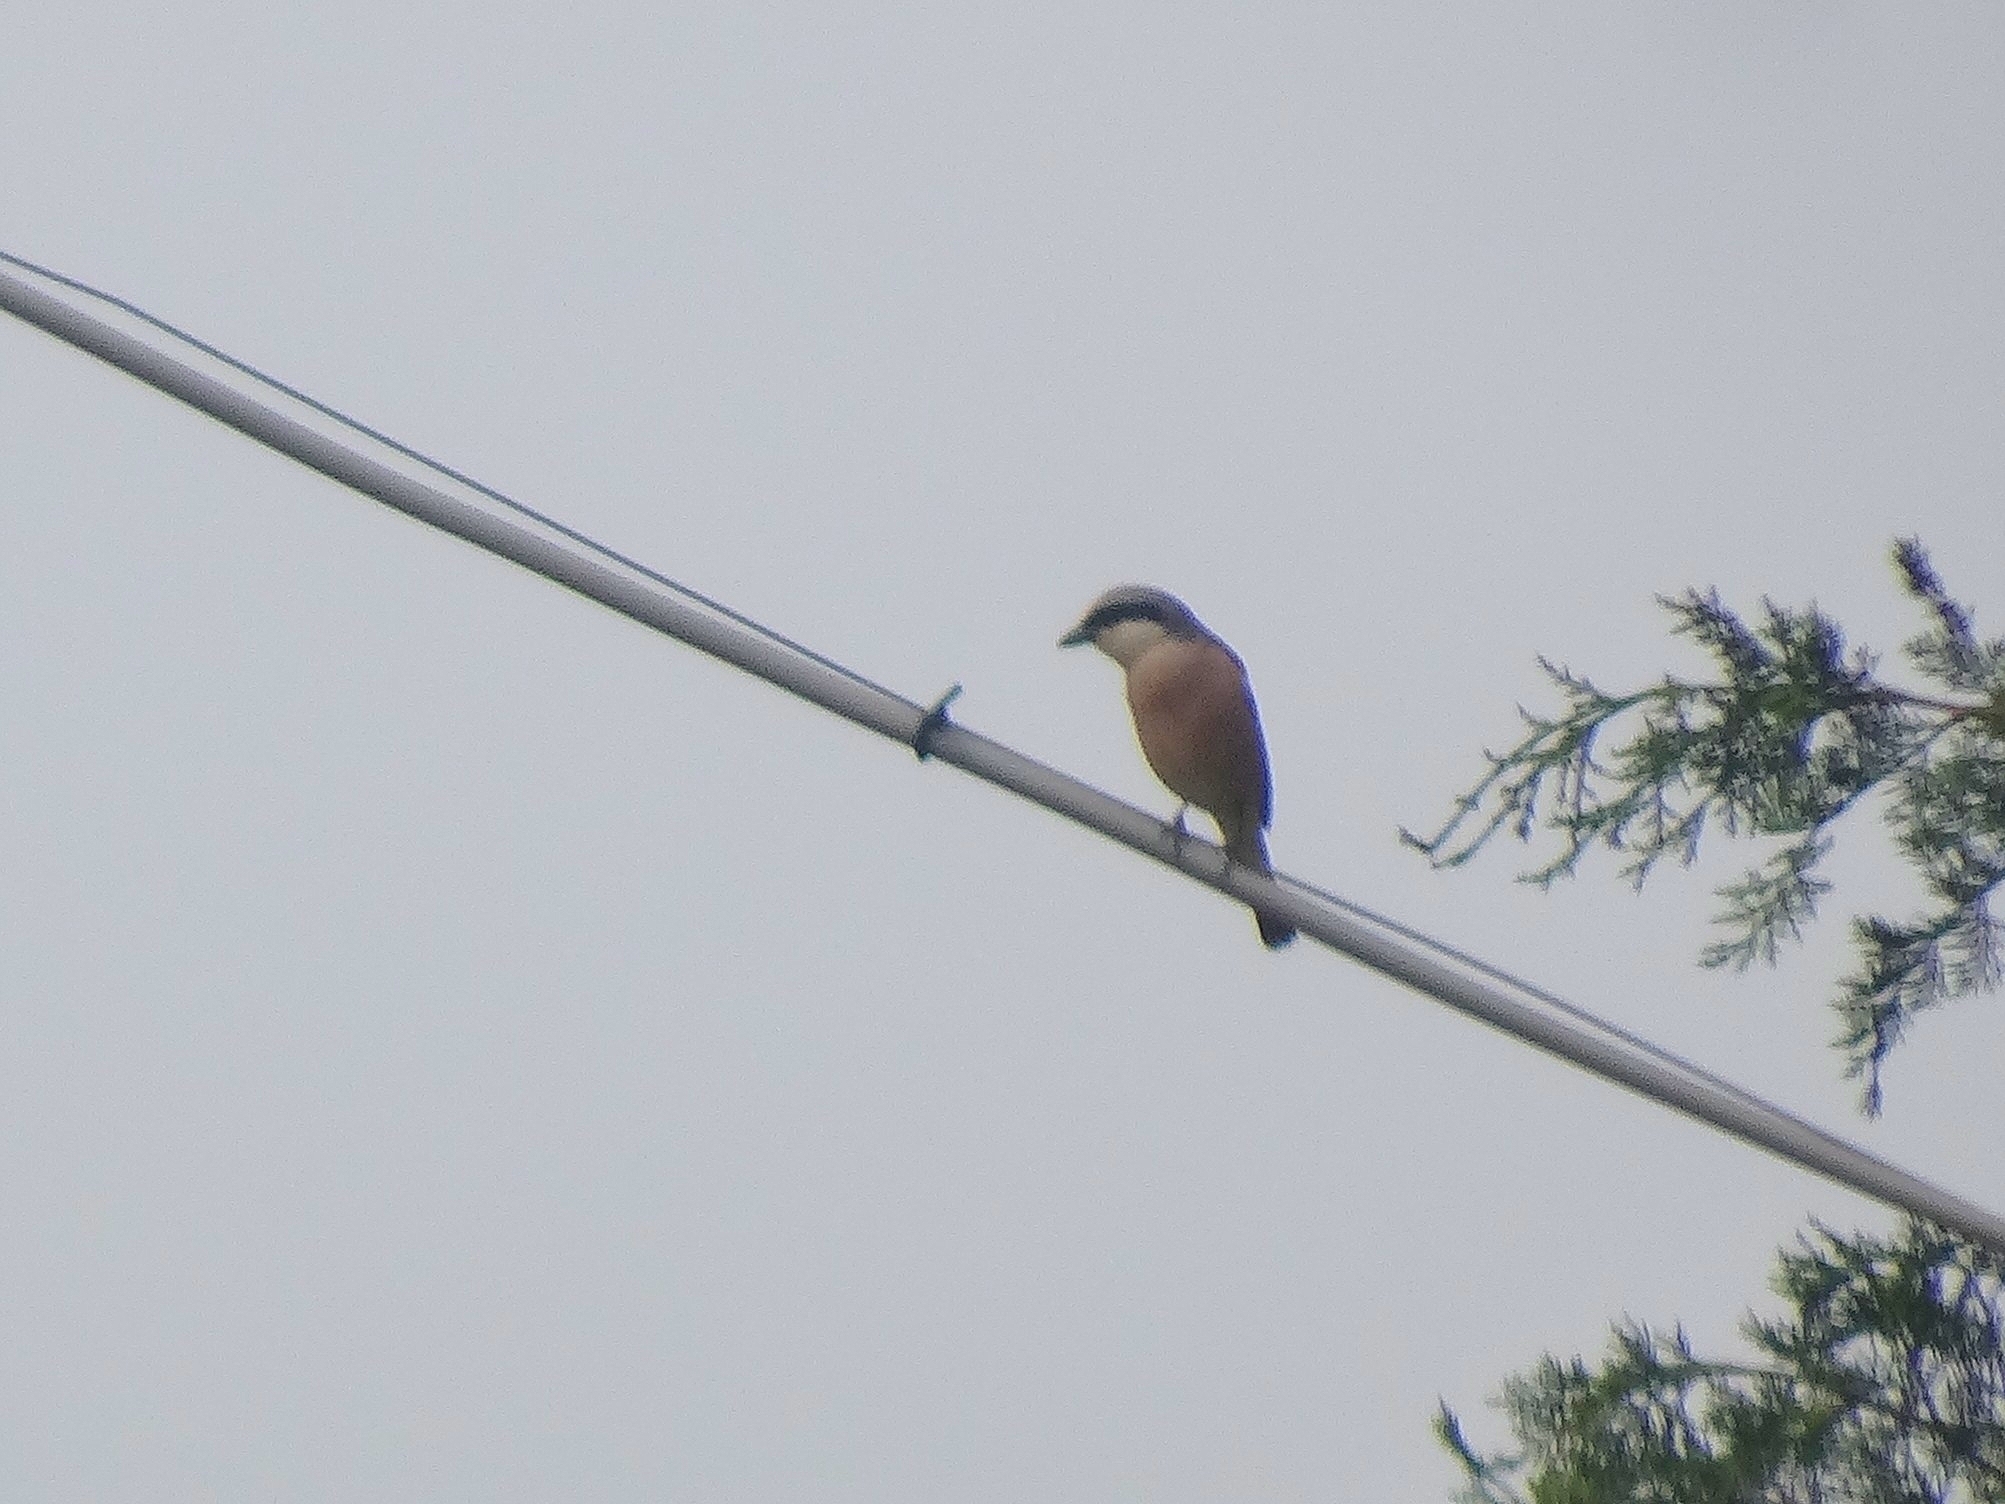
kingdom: Animalia
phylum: Chordata
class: Aves
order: Passeriformes
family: Laniidae
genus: Lanius
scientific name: Lanius collurio
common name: Red-backed shrike
